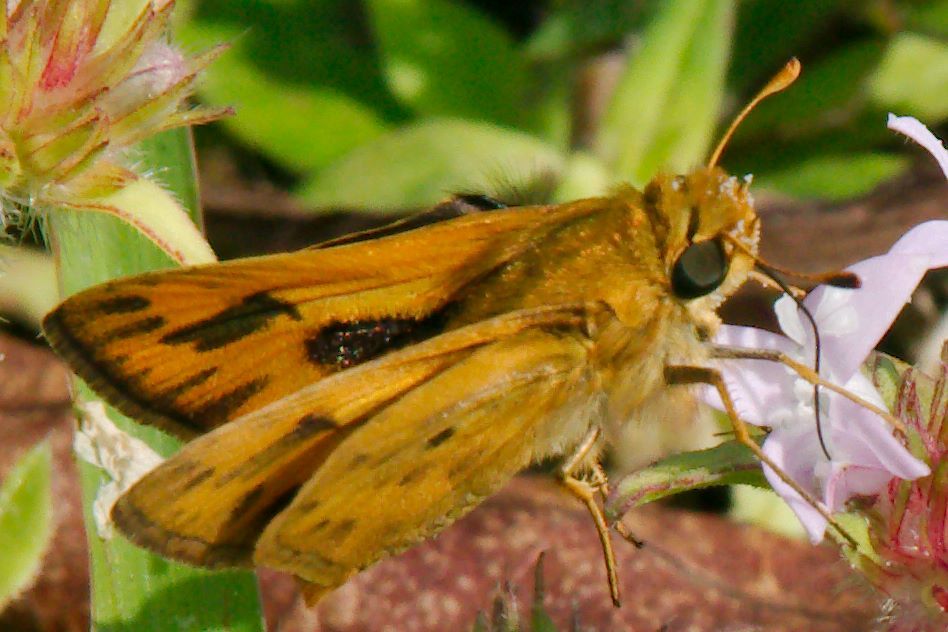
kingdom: Animalia
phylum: Arthropoda
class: Insecta
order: Lepidoptera
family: Hesperiidae
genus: Hylephila
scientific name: Hylephila phyleus
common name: Fiery skipper
